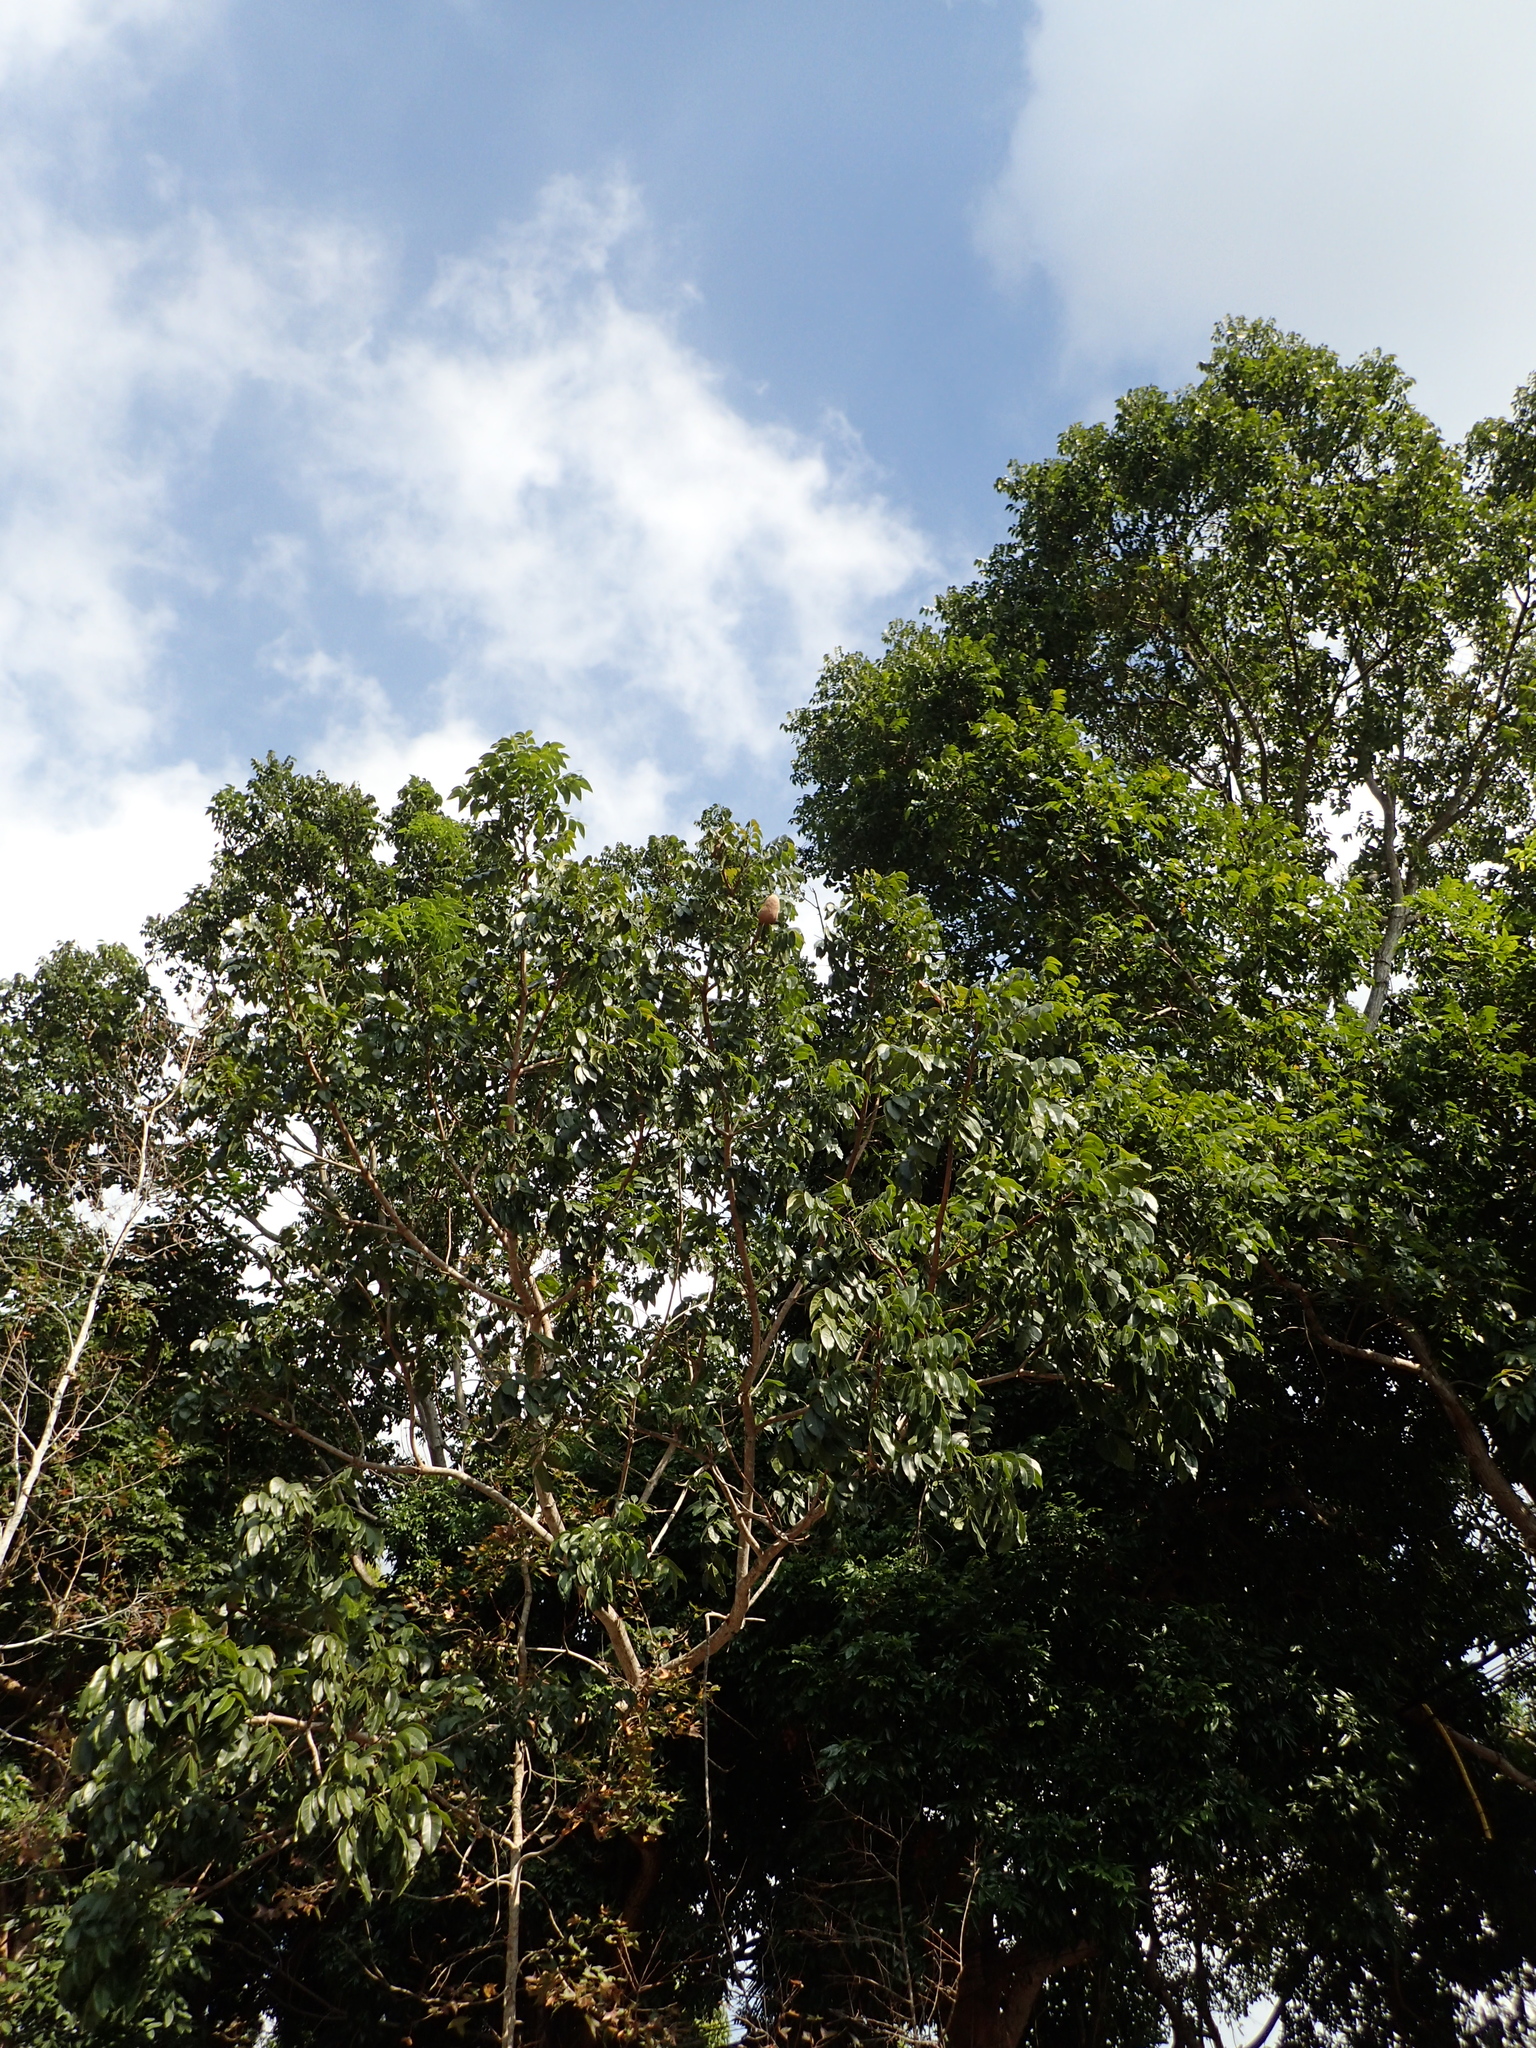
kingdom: Plantae
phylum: Tracheophyta
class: Magnoliopsida
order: Sapindales
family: Meliaceae
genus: Swietenia
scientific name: Swietenia macrophylla
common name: Honduras mahogany
